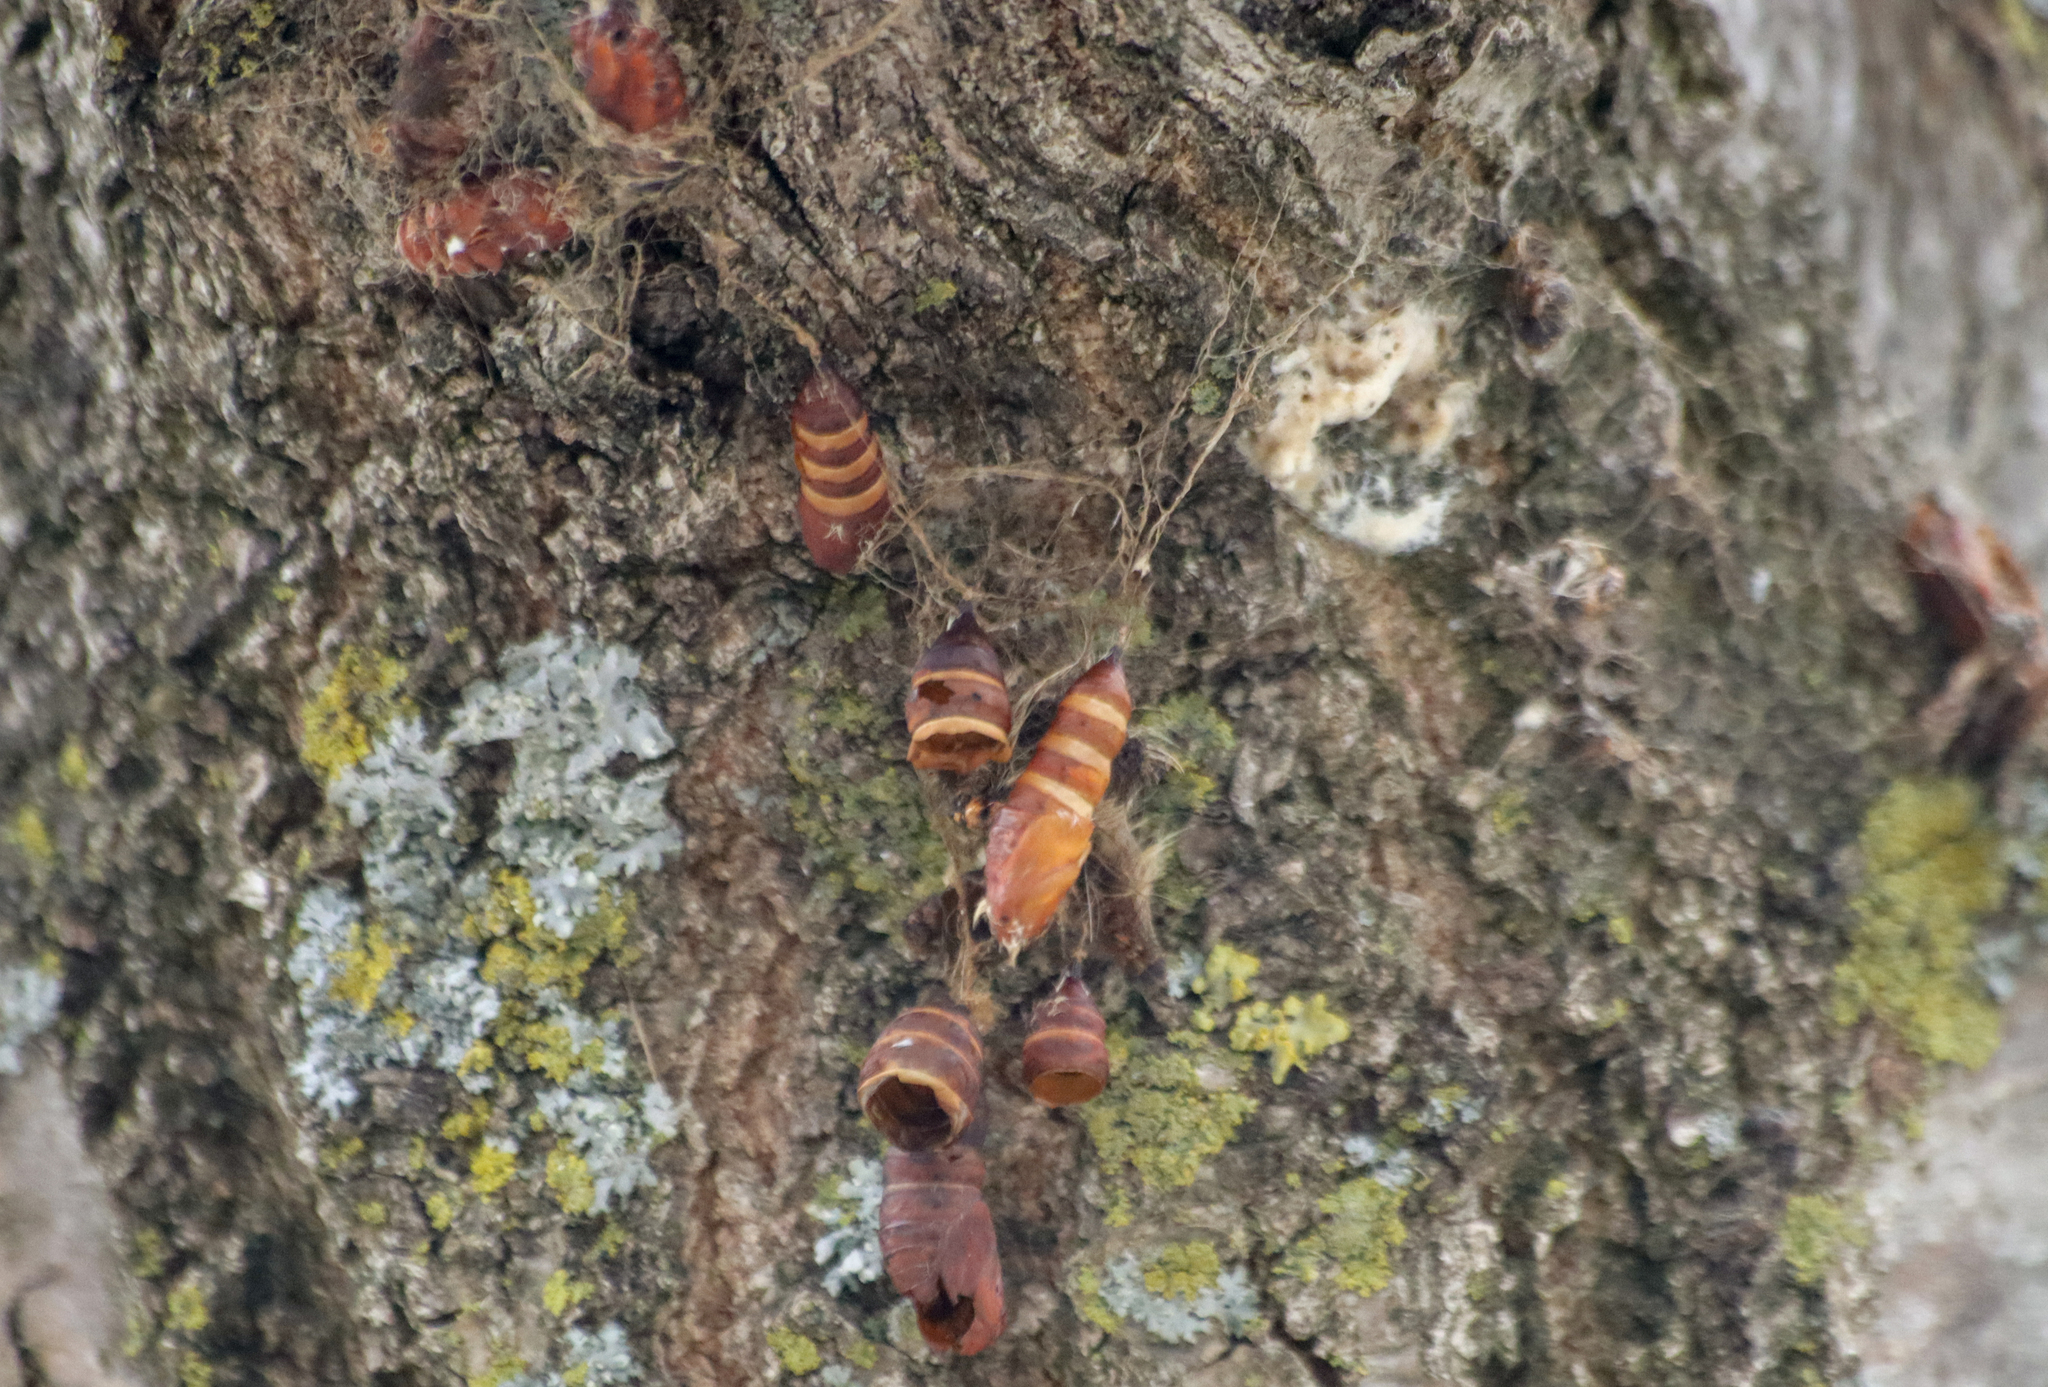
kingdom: Animalia
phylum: Arthropoda
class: Insecta
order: Lepidoptera
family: Erebidae
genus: Lymantria
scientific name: Lymantria dispar
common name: Gypsy moth
